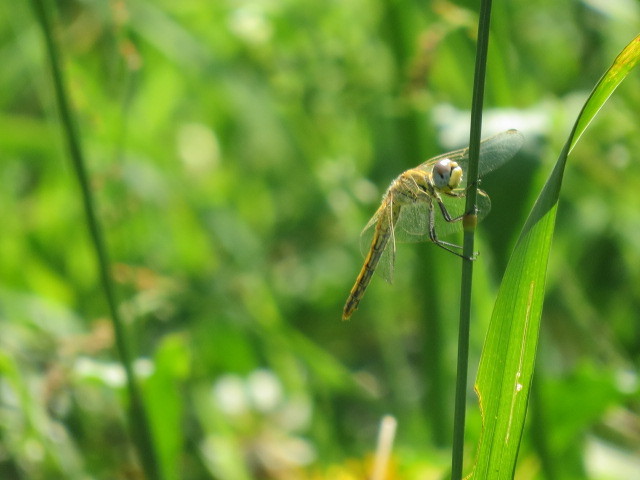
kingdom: Animalia
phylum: Arthropoda
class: Insecta
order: Odonata
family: Libellulidae
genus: Sympetrum
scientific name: Sympetrum fonscolombii
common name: Red-veined darter
